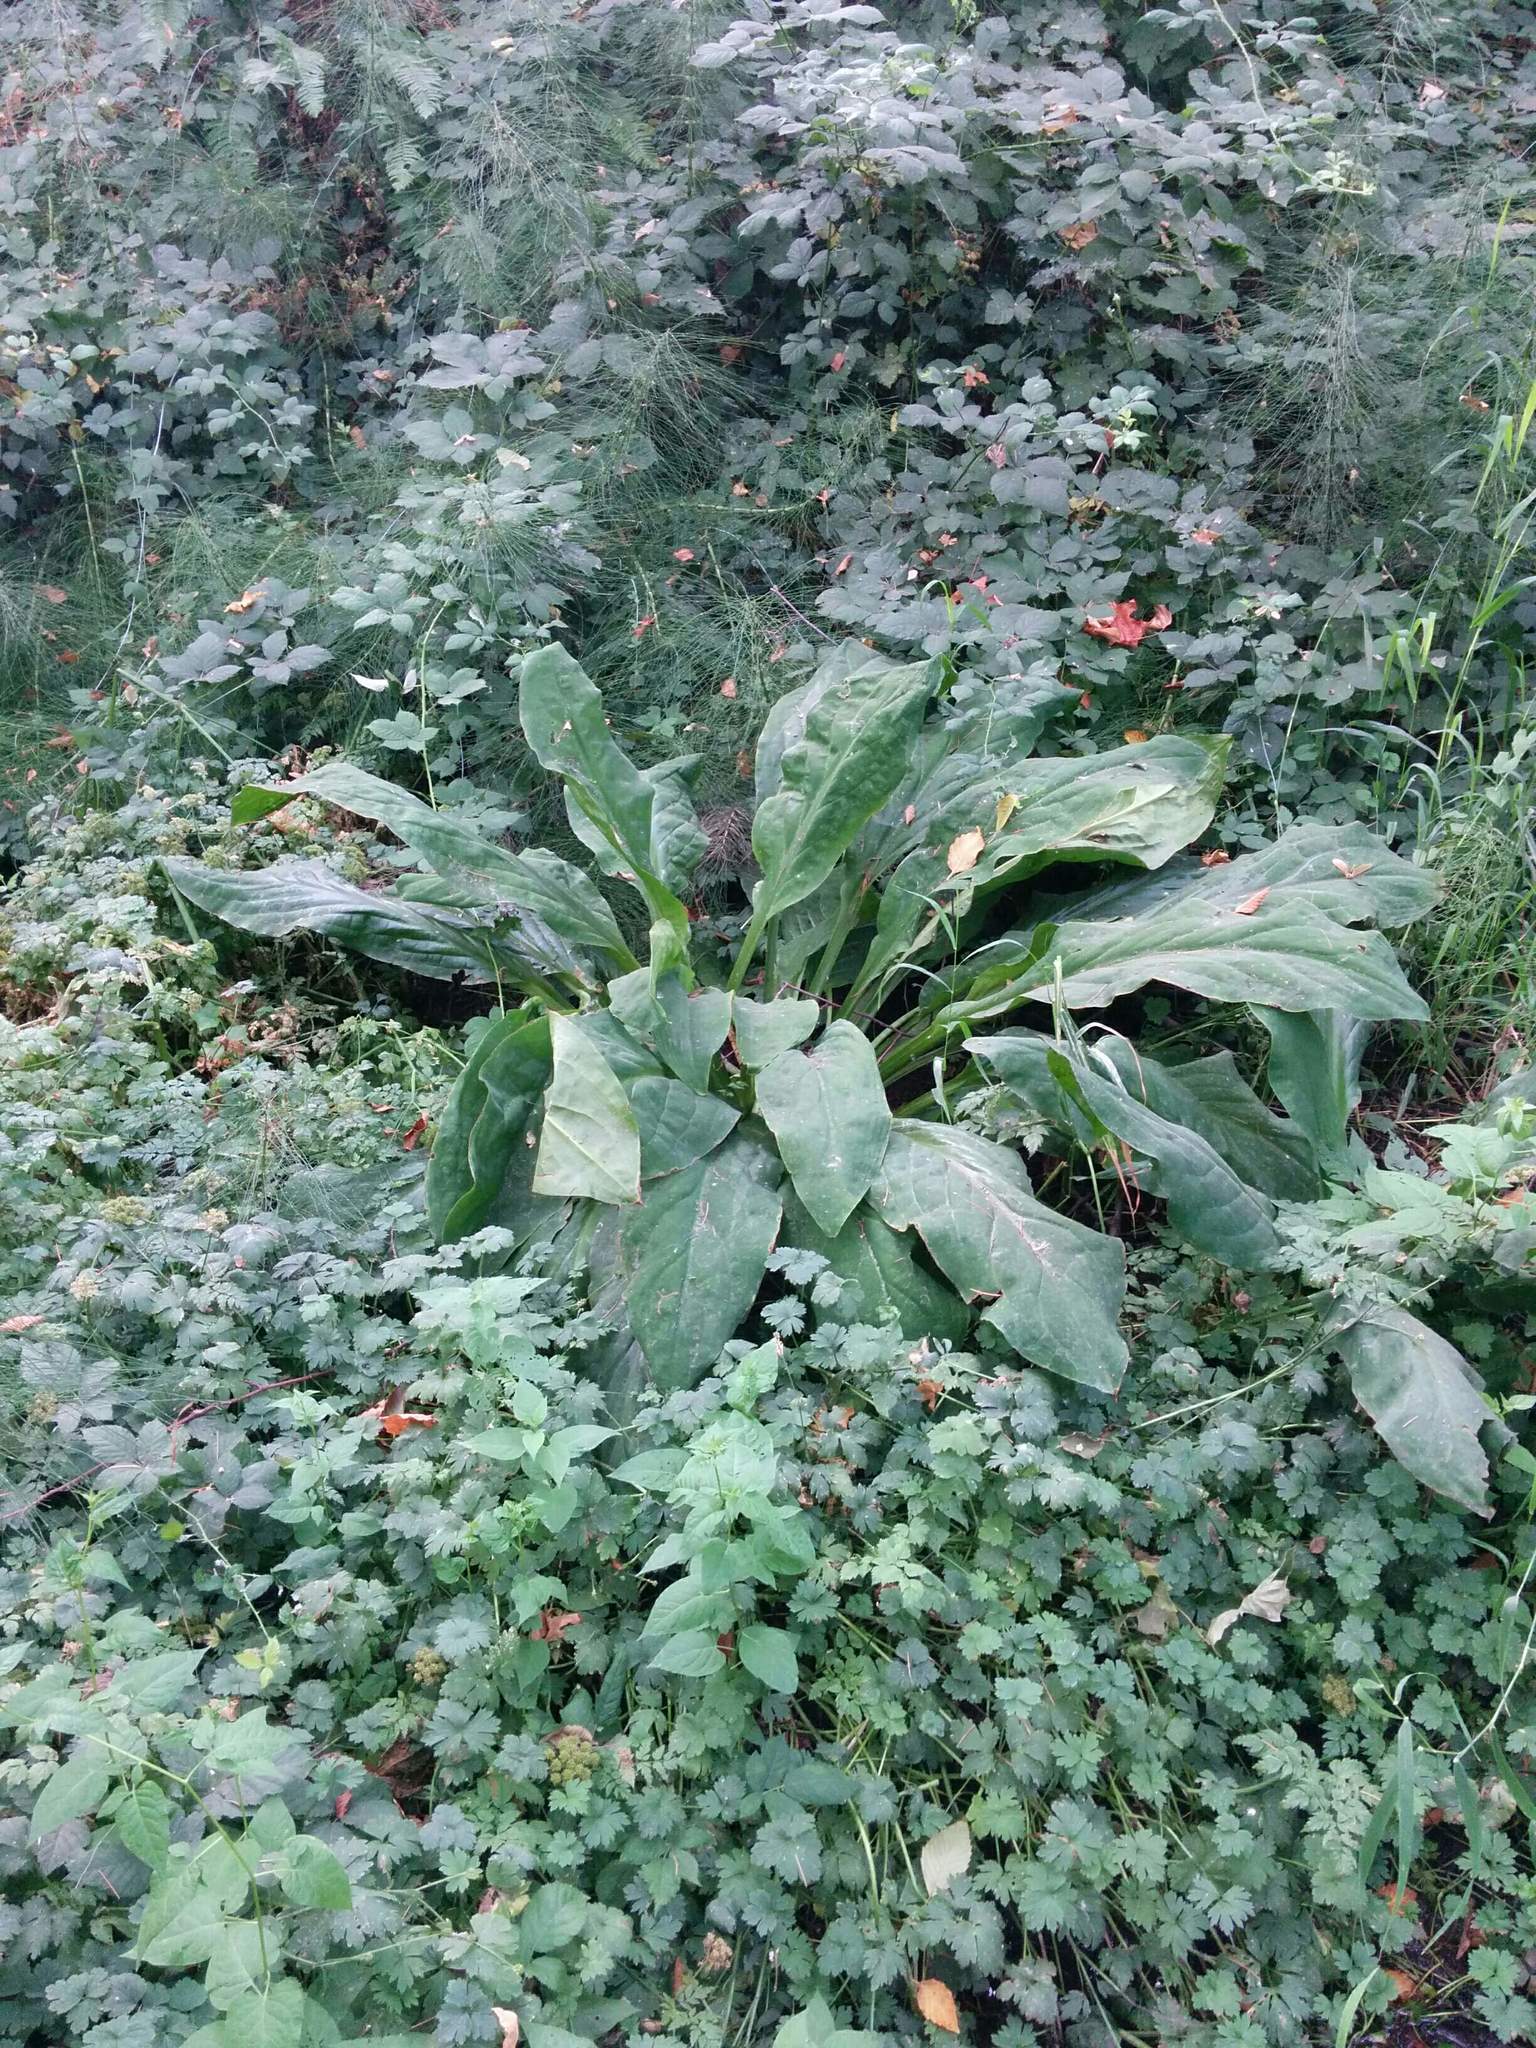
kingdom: Plantae
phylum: Tracheophyta
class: Liliopsida
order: Alismatales
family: Araceae
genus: Lysichiton
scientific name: Lysichiton americanus
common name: American skunk cabbage
